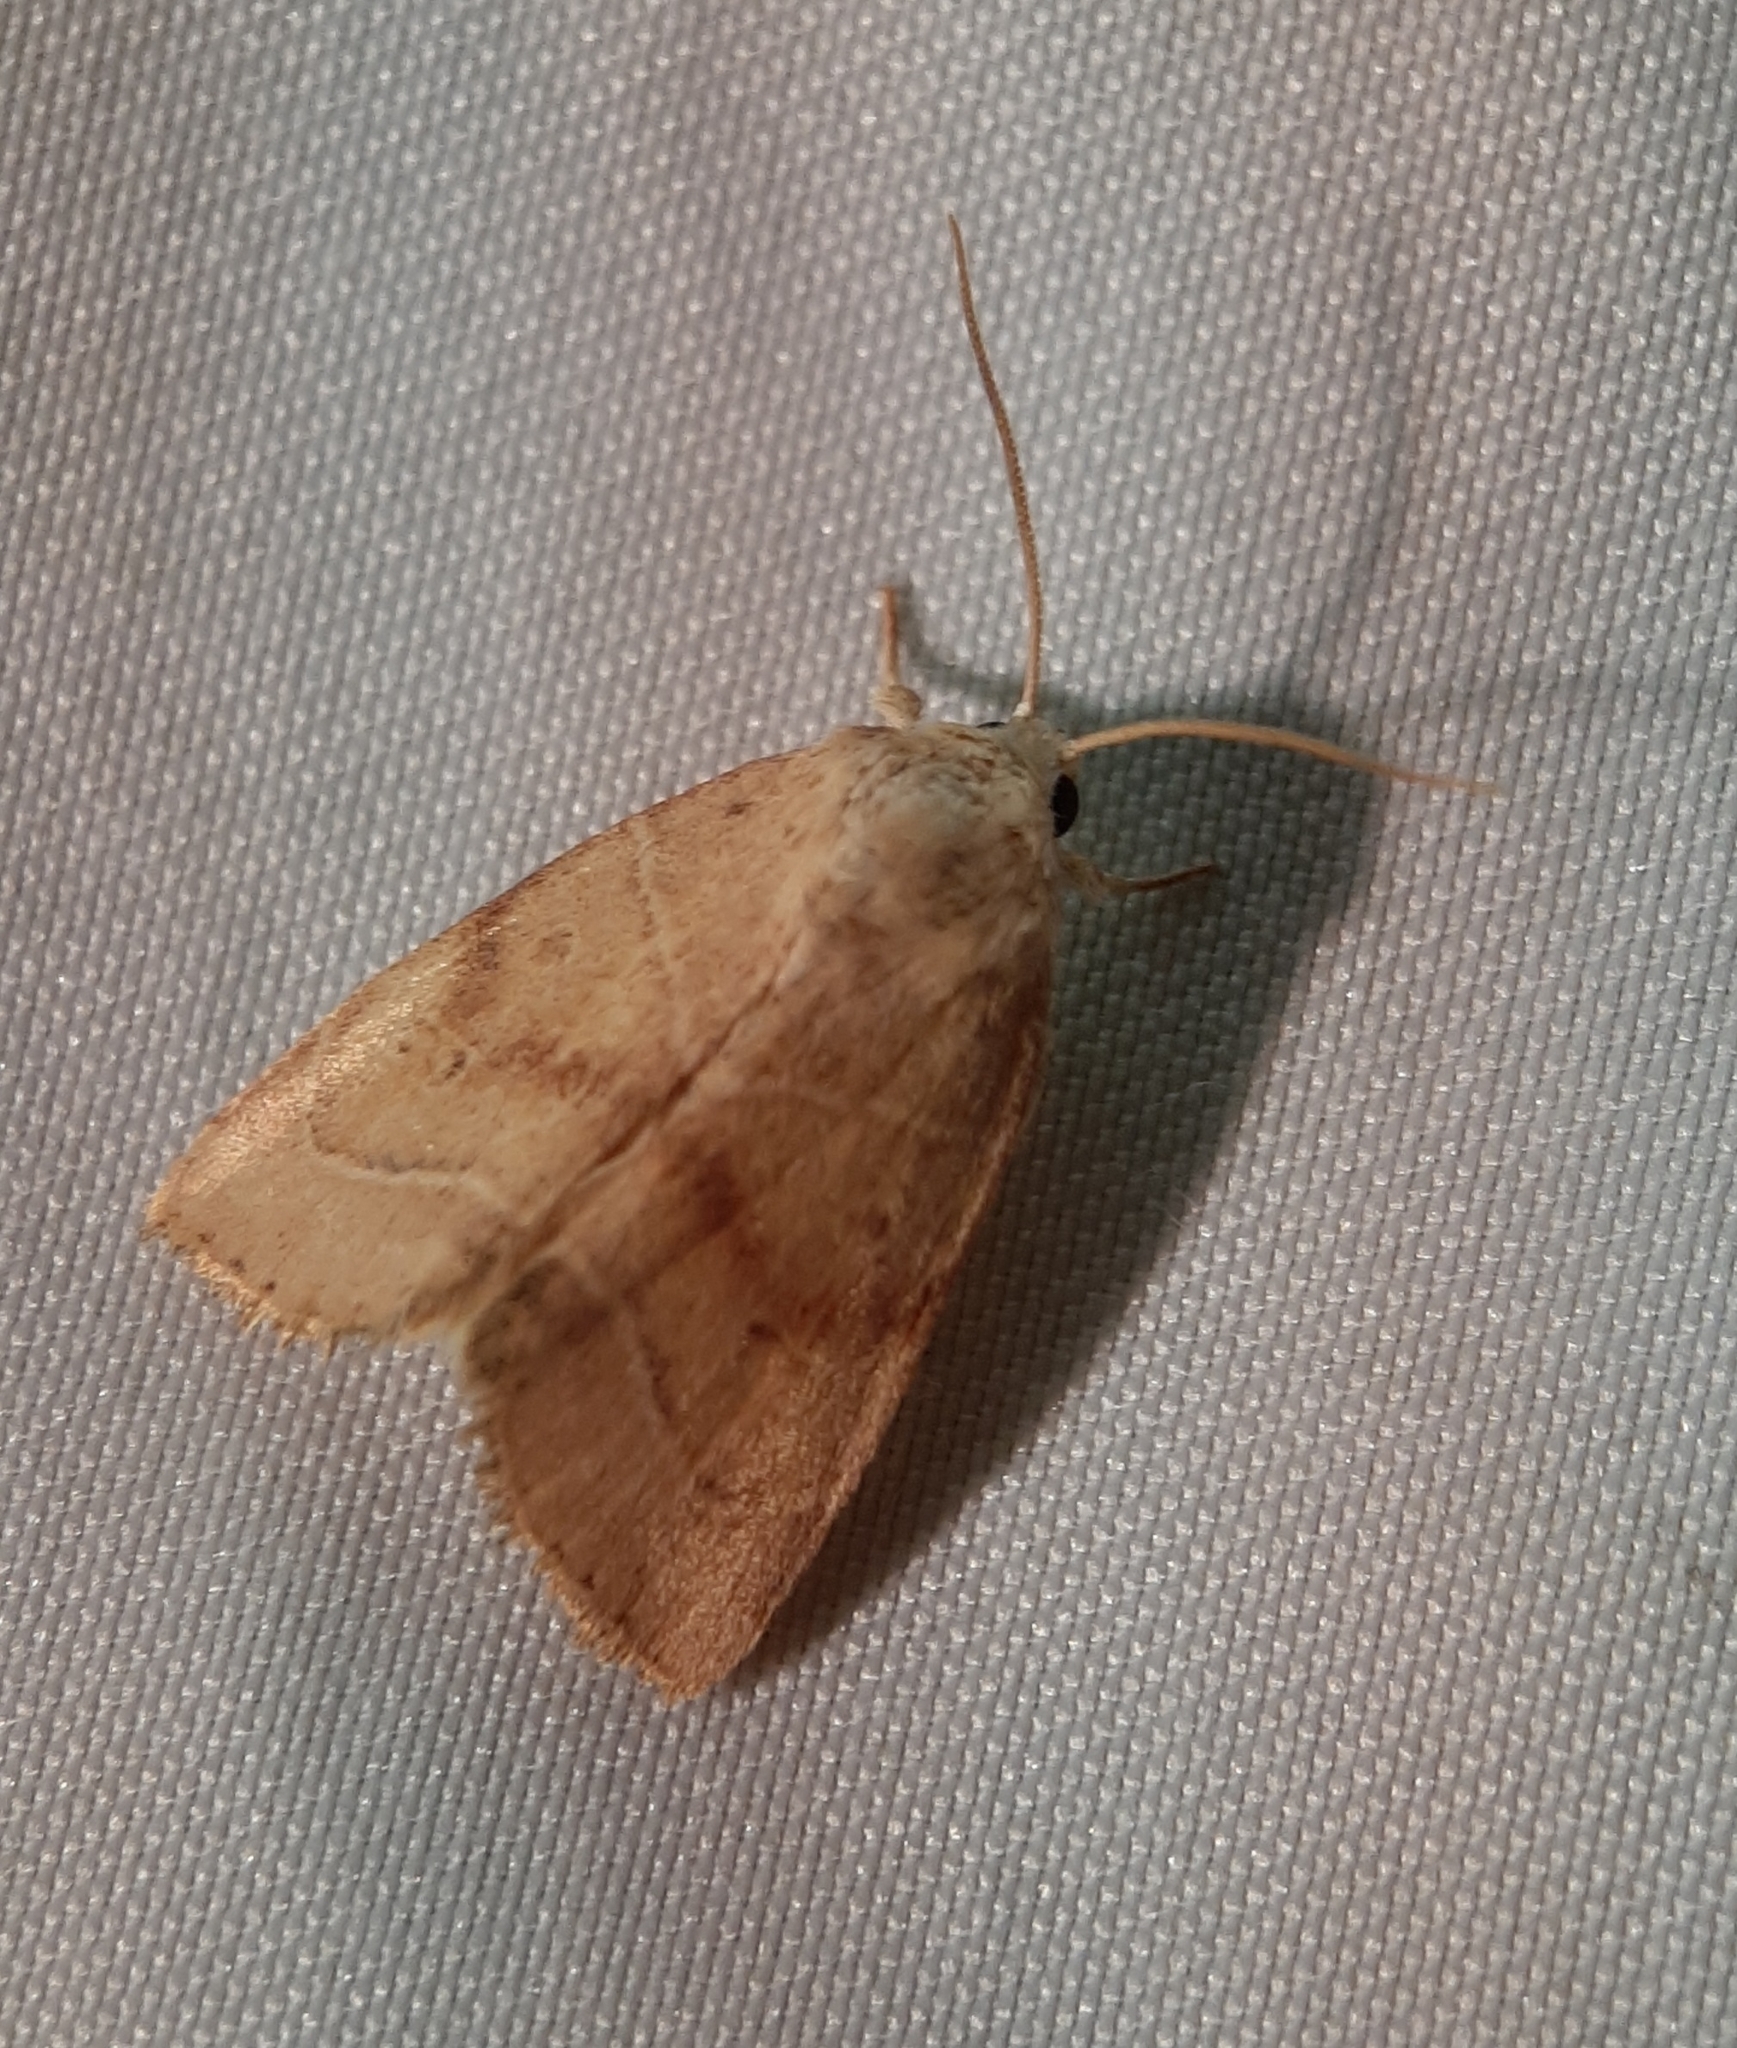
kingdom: Animalia
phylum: Arthropoda
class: Insecta
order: Lepidoptera
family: Noctuidae
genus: Cosmia
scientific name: Cosmia calami
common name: American dun-bar moth
